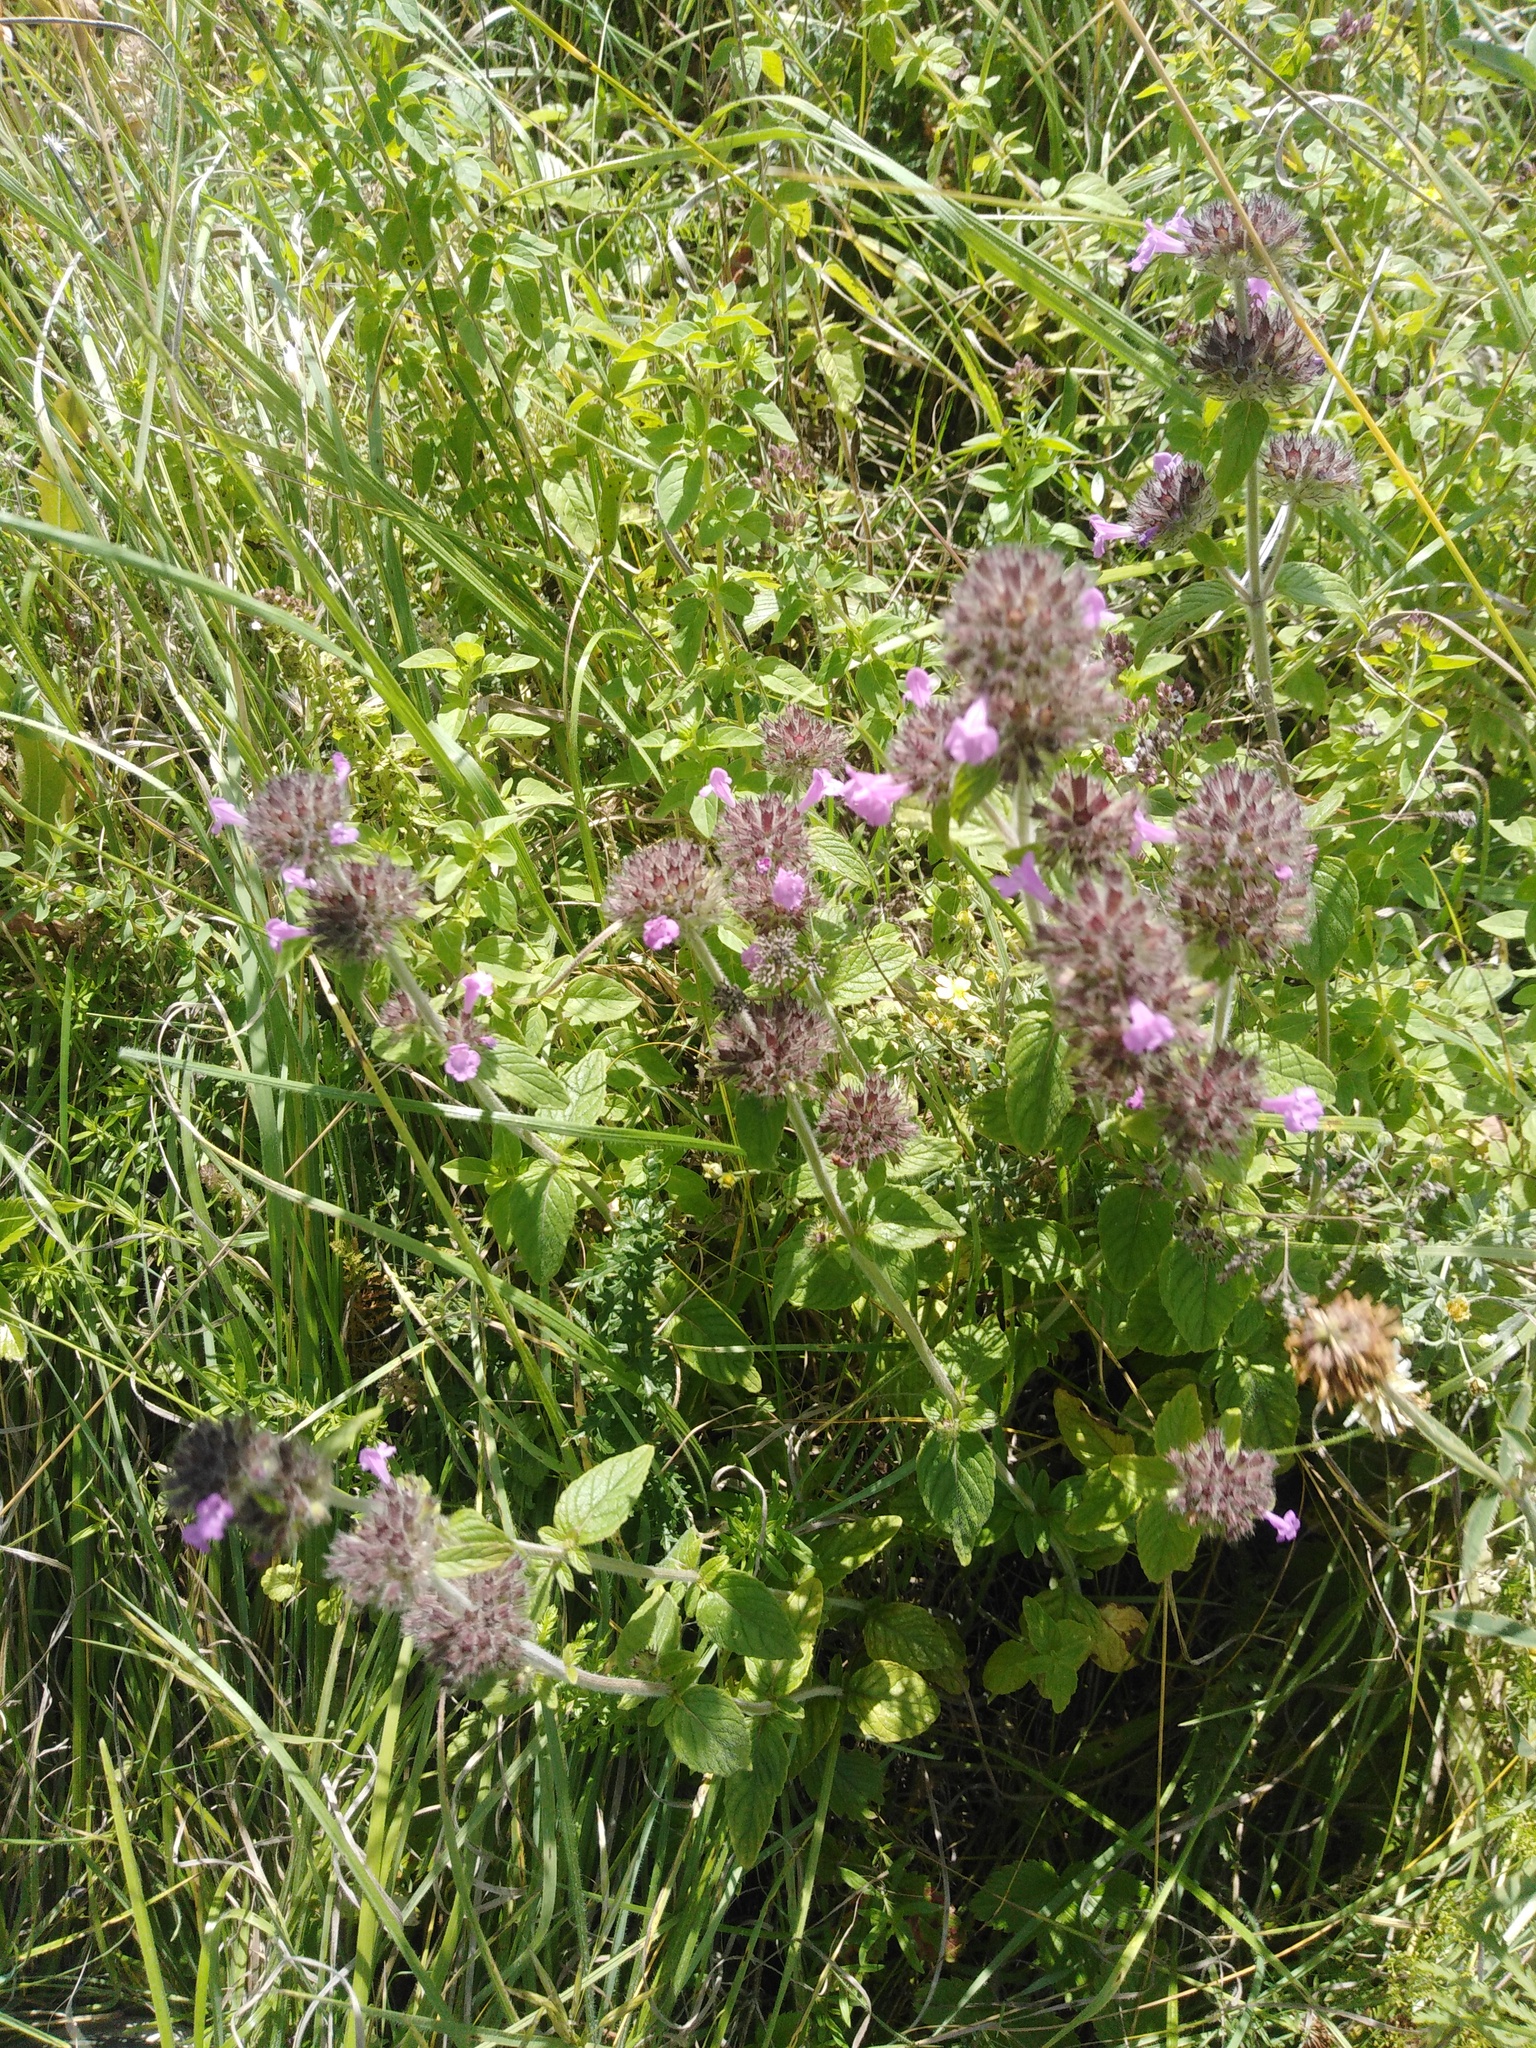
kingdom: Plantae
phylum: Tracheophyta
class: Magnoliopsida
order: Lamiales
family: Lamiaceae
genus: Clinopodium
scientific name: Clinopodium vulgare
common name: Wild basil
